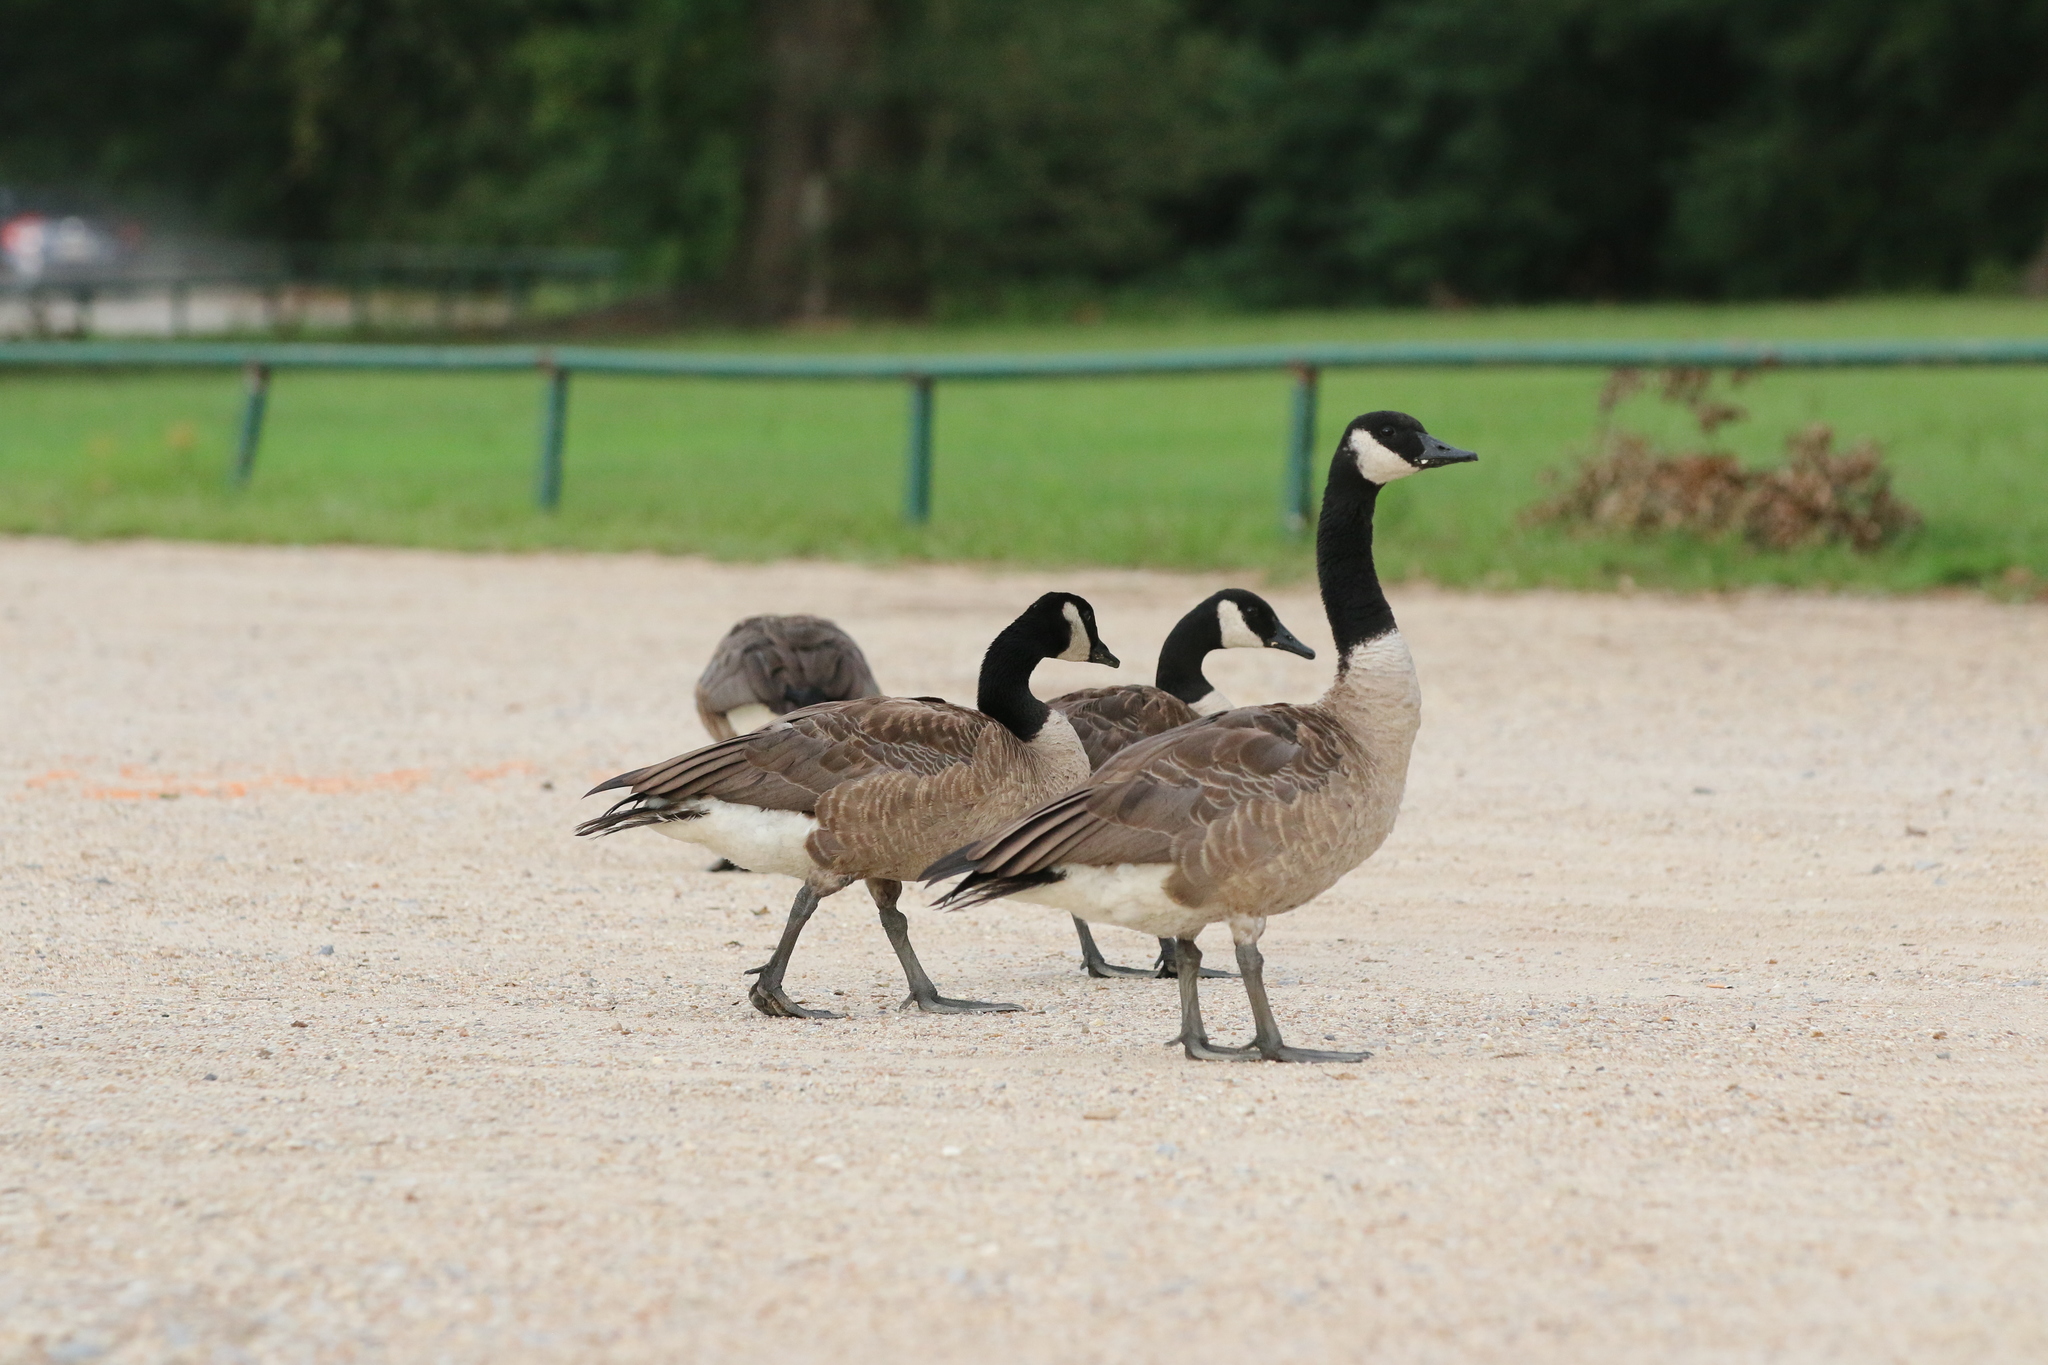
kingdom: Animalia
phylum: Chordata
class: Aves
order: Anseriformes
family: Anatidae
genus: Branta
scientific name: Branta canadensis
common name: Canada goose
